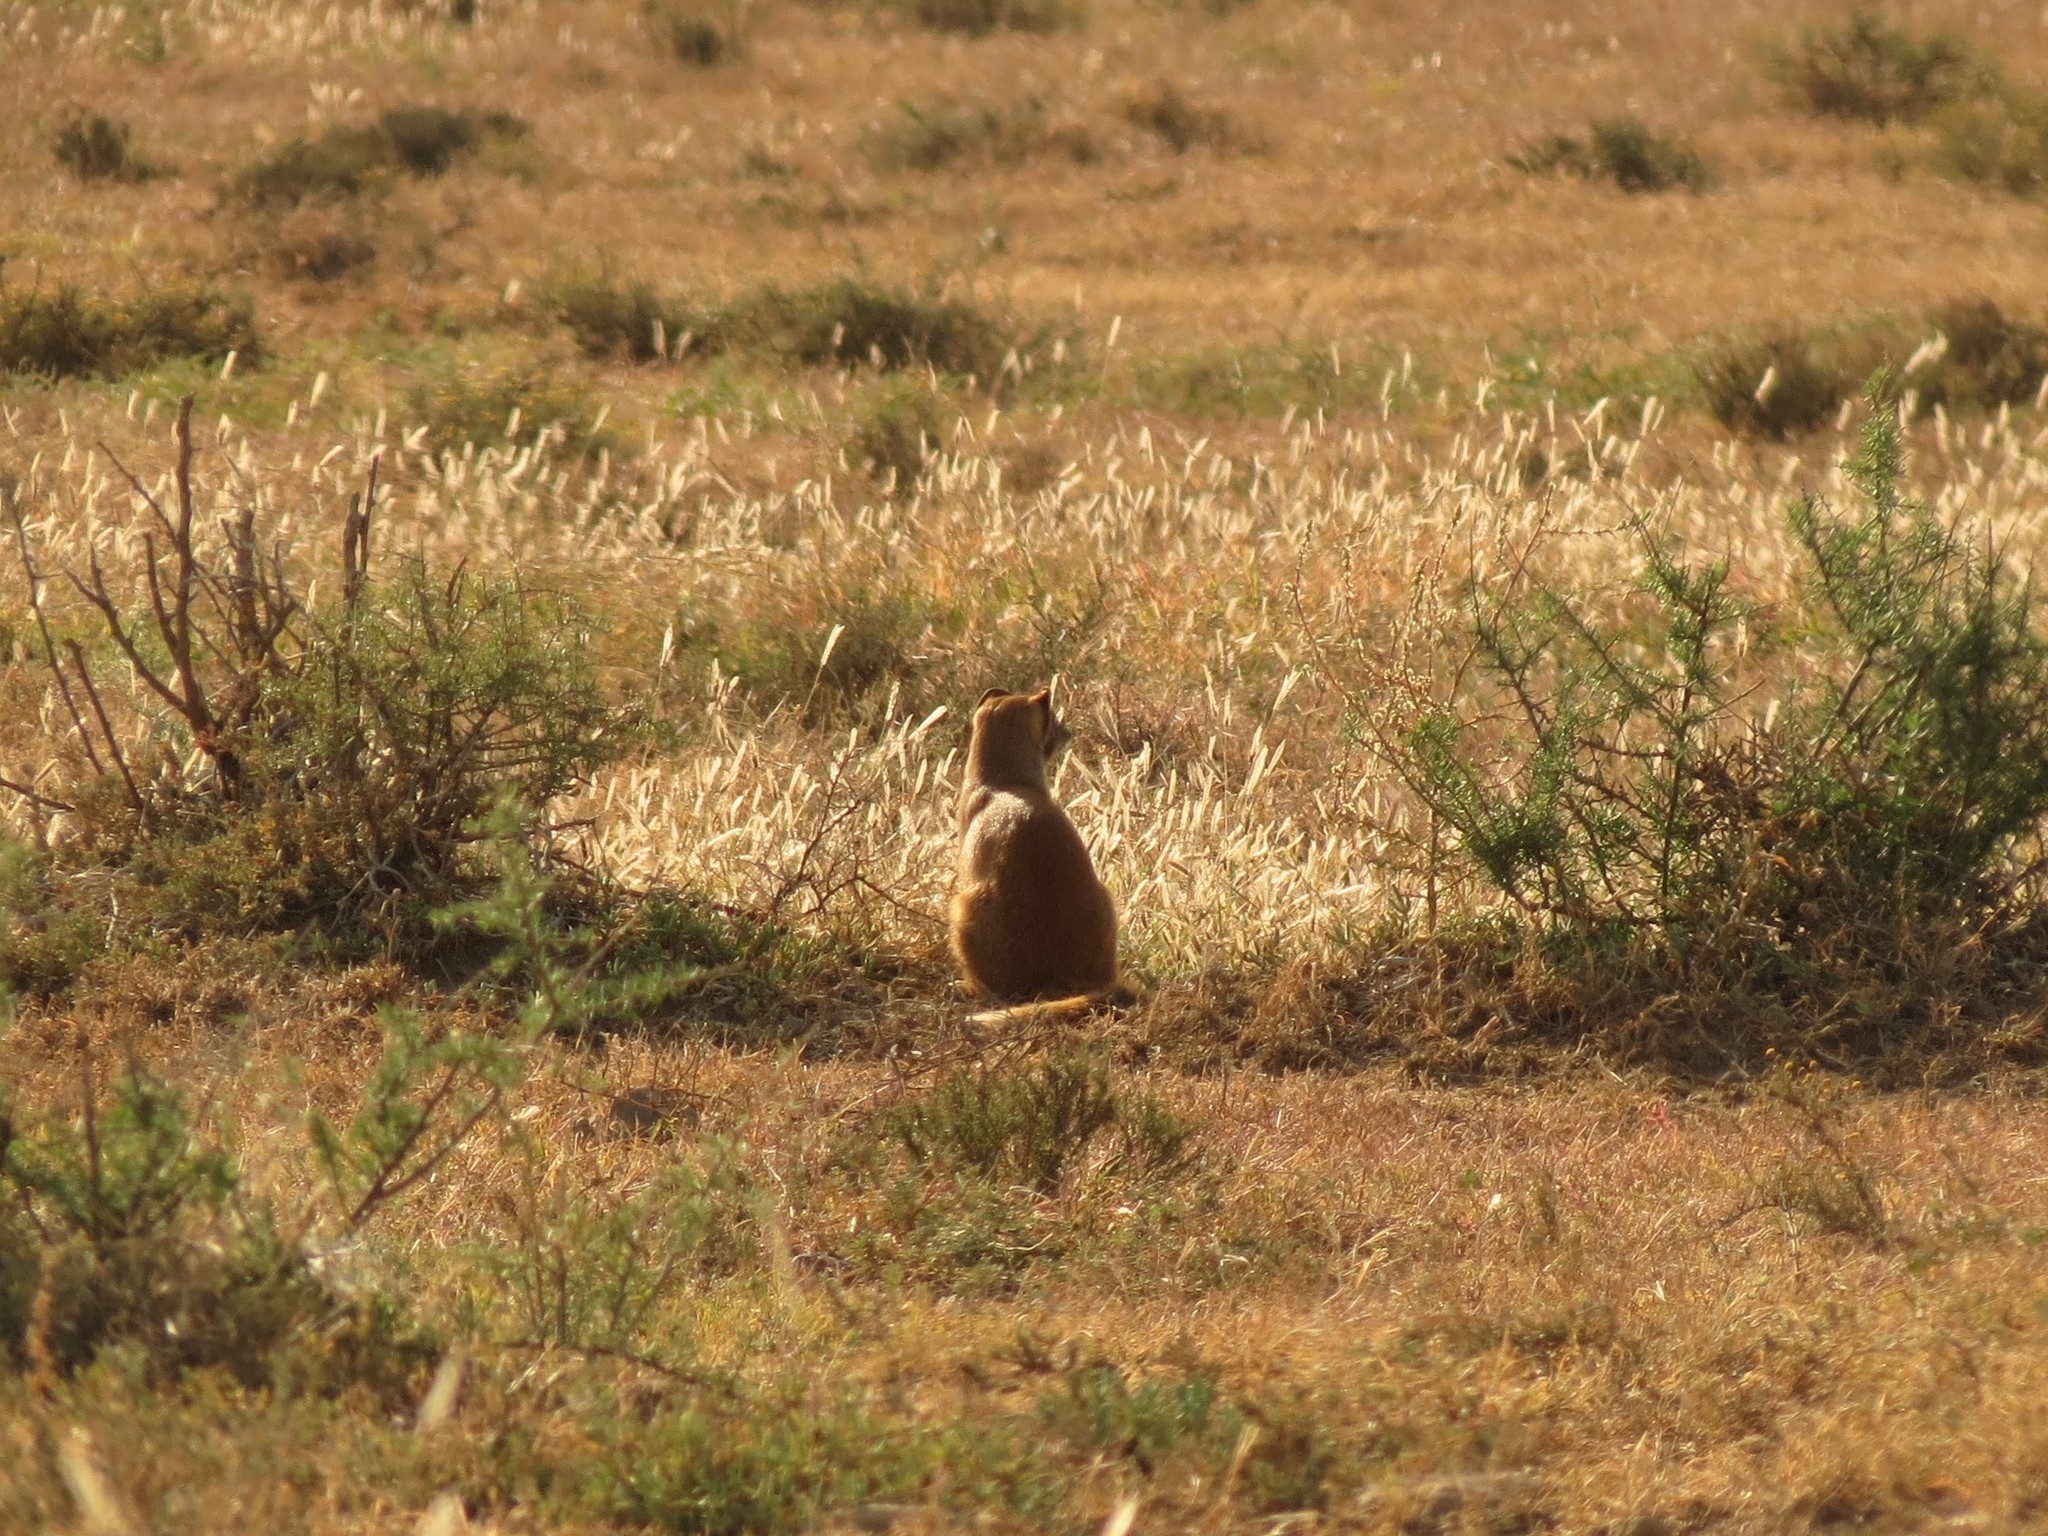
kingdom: Animalia
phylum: Chordata
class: Mammalia
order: Carnivora
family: Herpestidae
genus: Cynictis
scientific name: Cynictis penicillata
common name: Yellow mongoose
